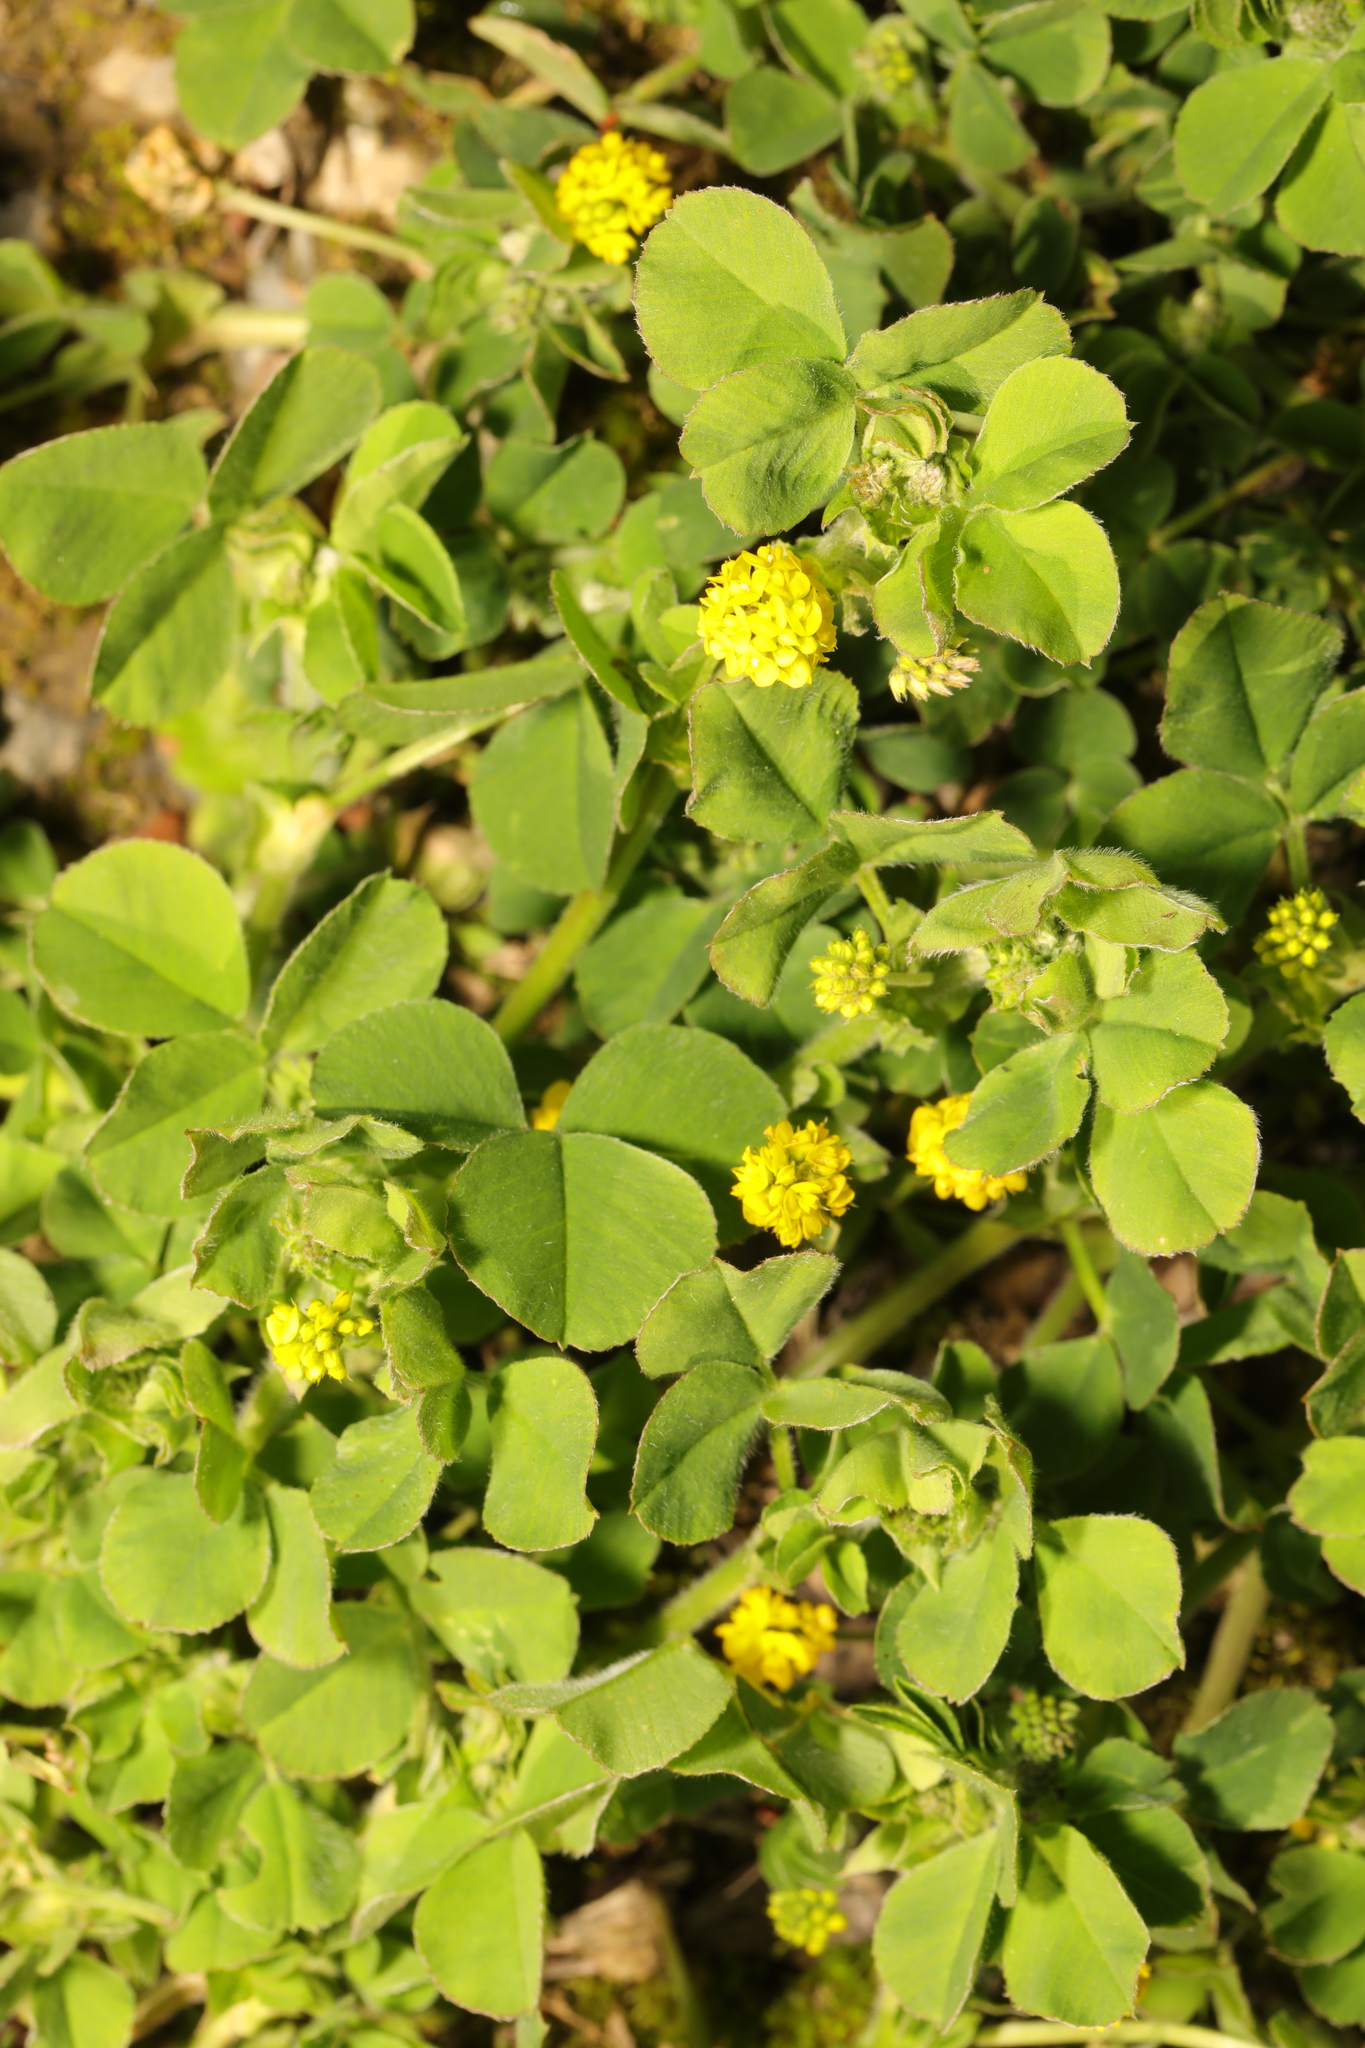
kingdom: Plantae
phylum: Tracheophyta
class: Magnoliopsida
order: Fabales
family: Fabaceae
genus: Medicago
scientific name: Medicago lupulina
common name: Black medick
